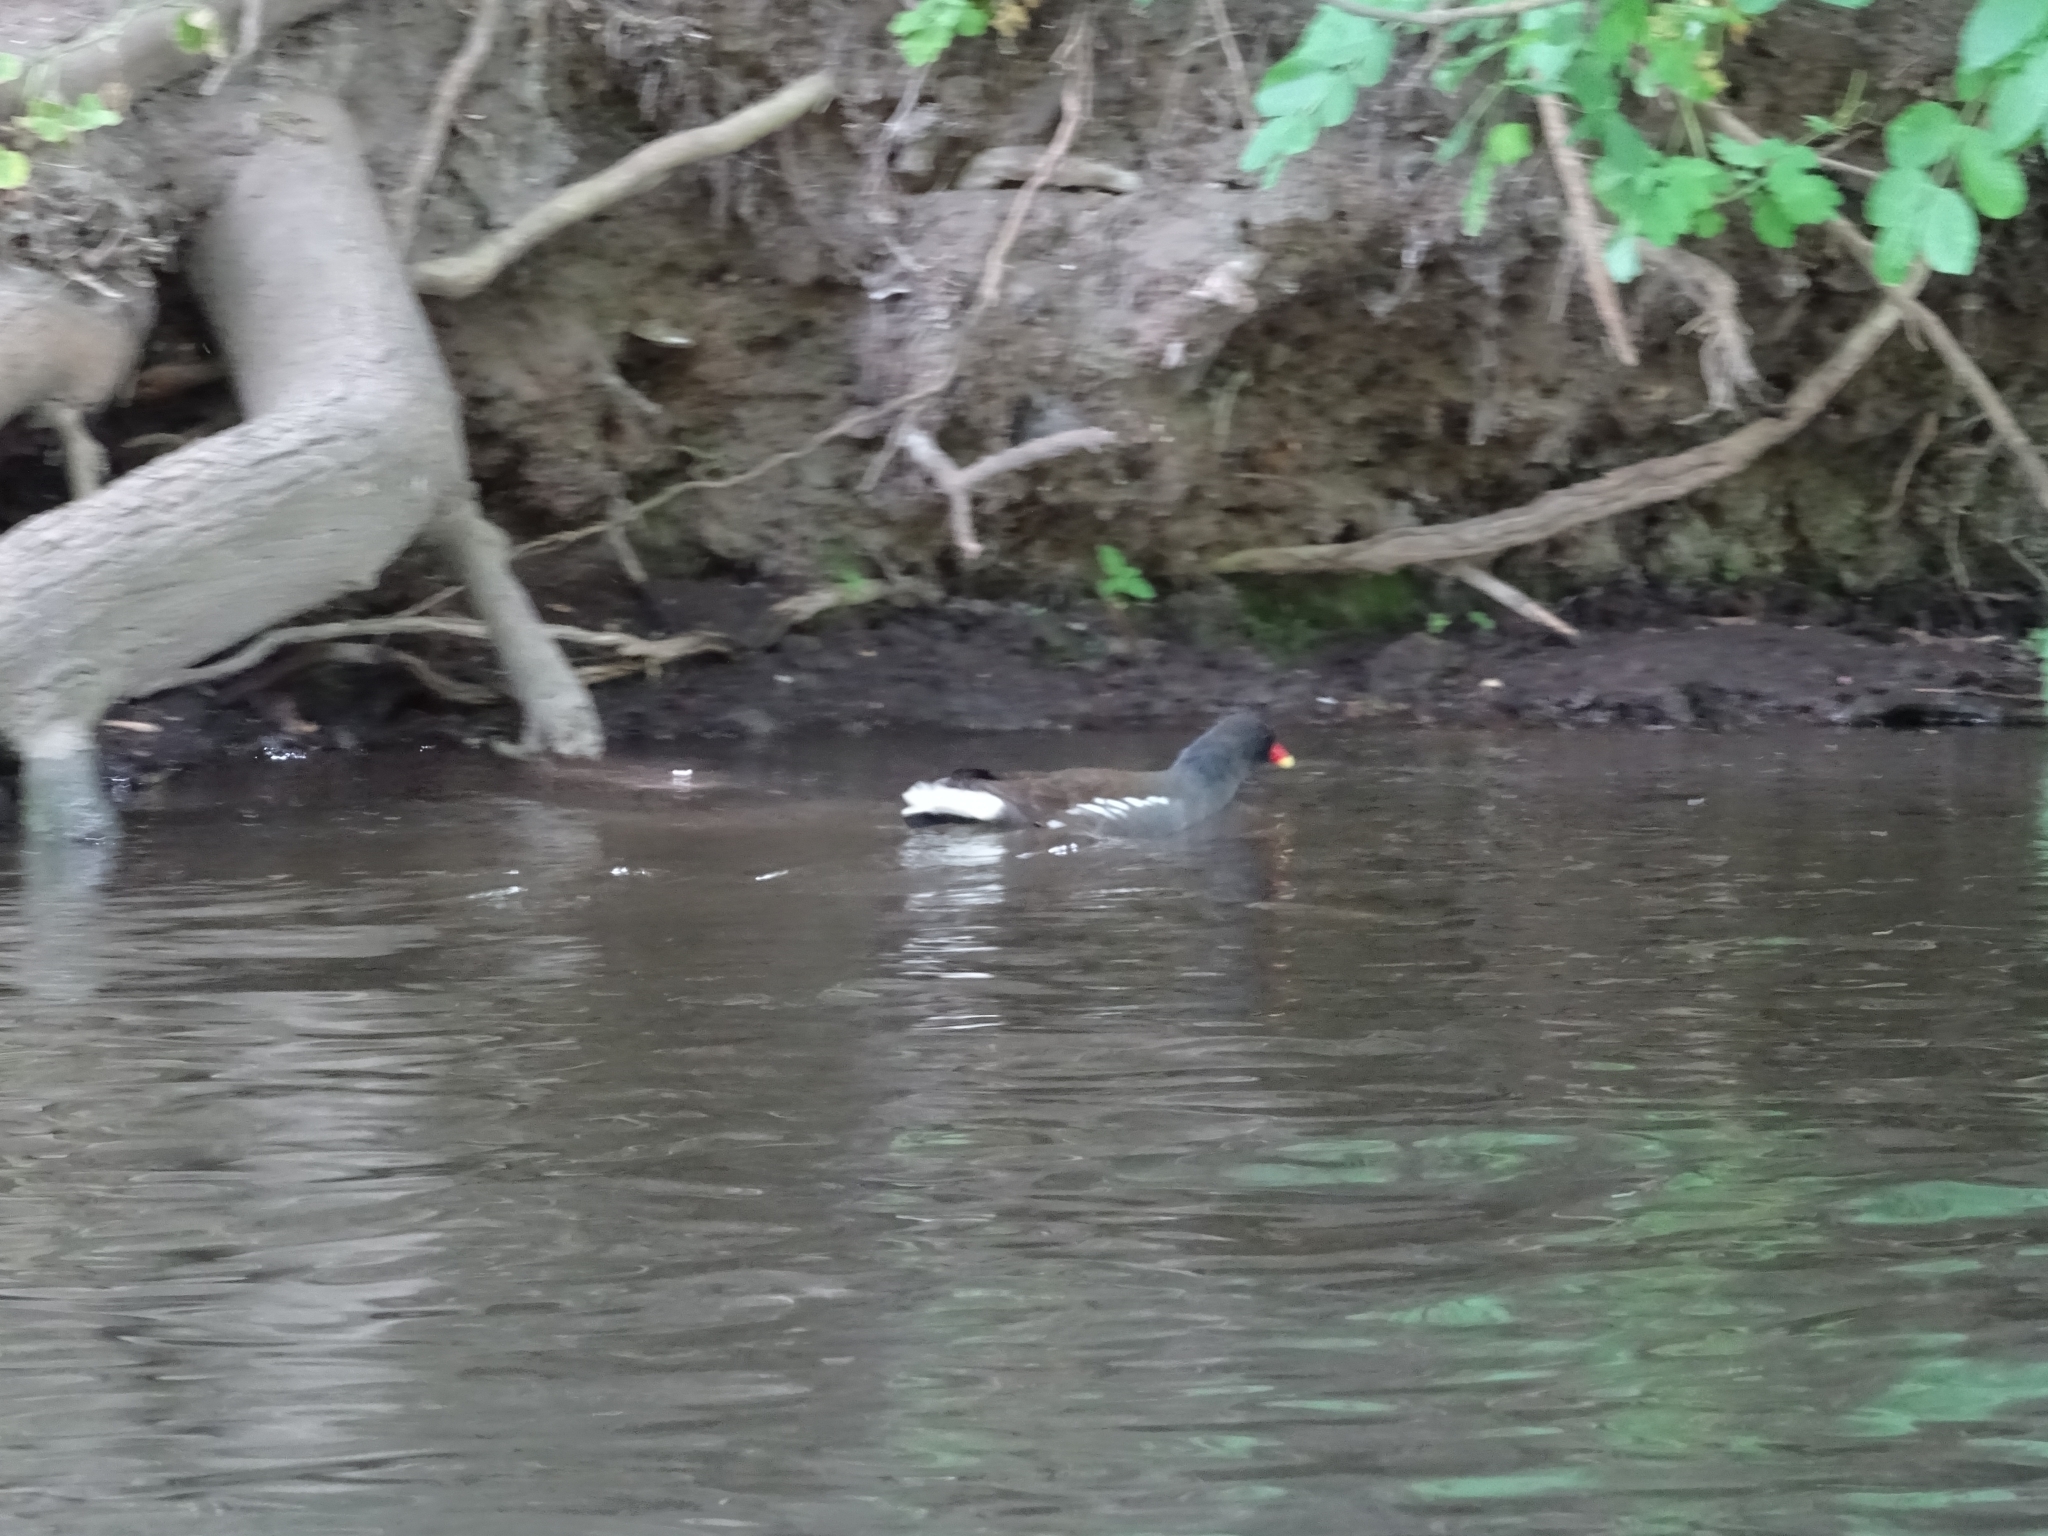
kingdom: Animalia
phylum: Chordata
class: Aves
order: Gruiformes
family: Rallidae
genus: Gallinula
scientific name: Gallinula chloropus
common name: Common moorhen
